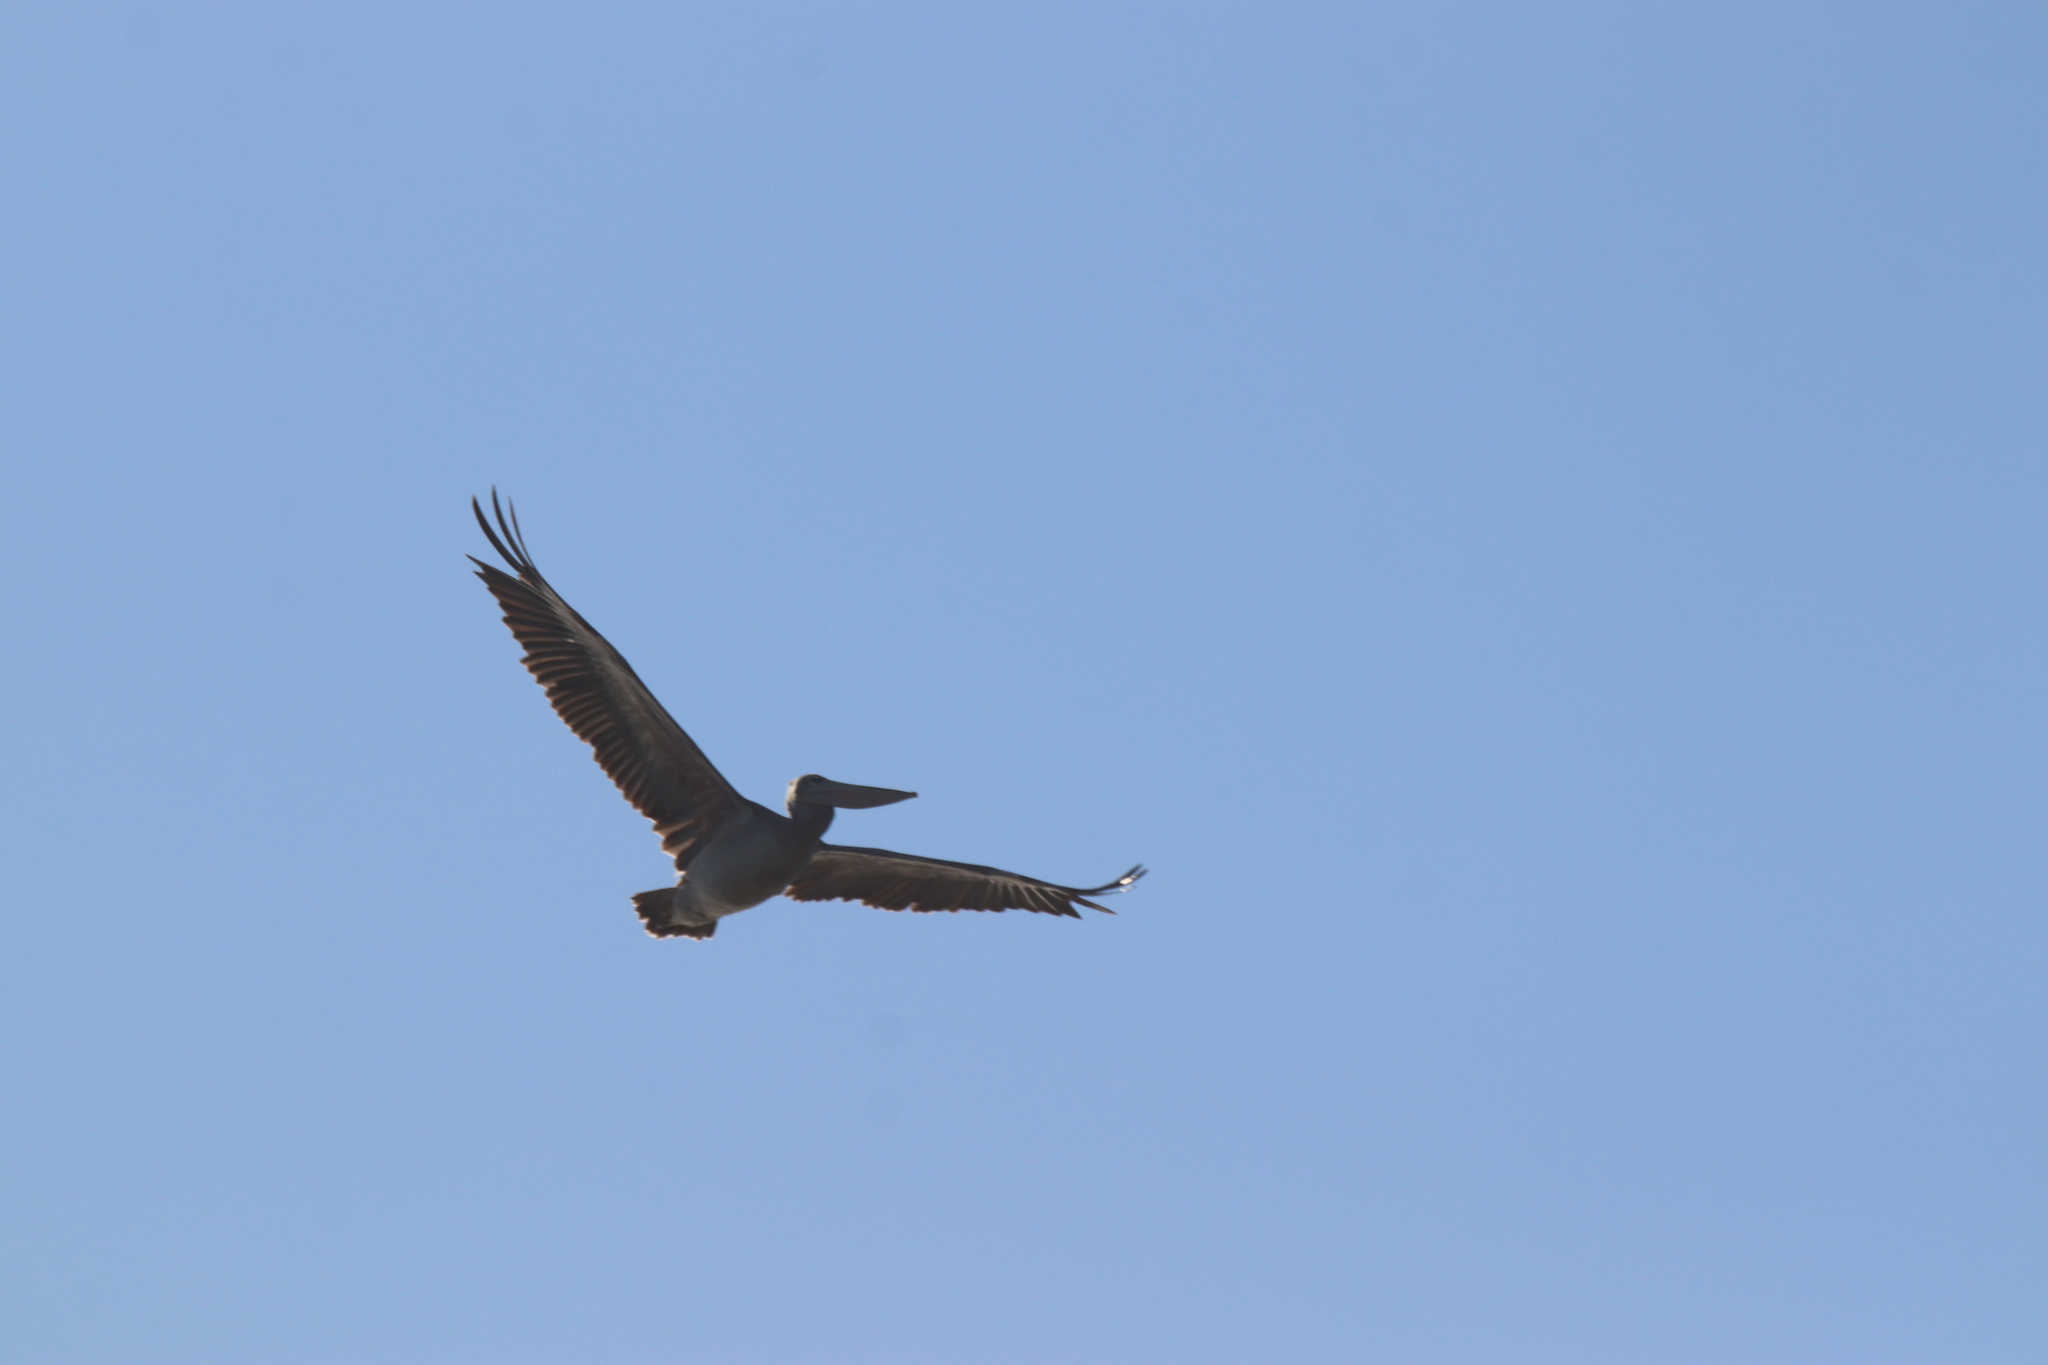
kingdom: Animalia
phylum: Chordata
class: Aves
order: Pelecaniformes
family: Pelecanidae
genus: Pelecanus
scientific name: Pelecanus rufescens
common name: Pink-backed pelican
